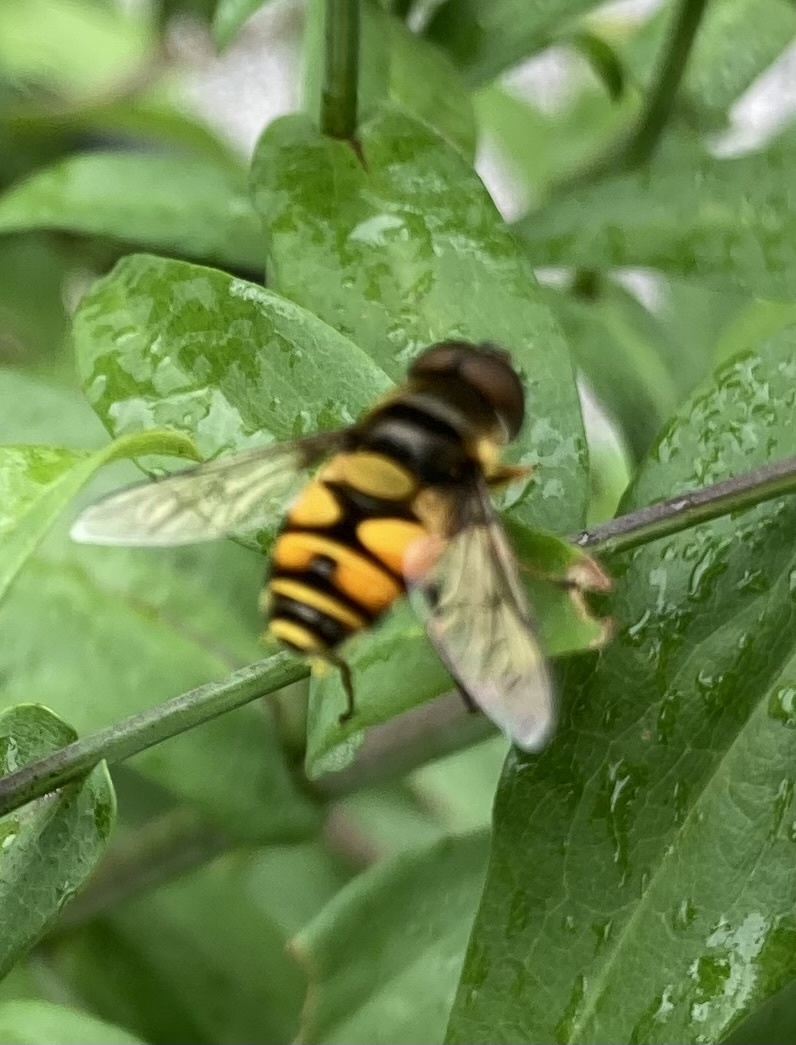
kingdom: Animalia
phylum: Arthropoda
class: Insecta
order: Diptera
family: Syrphidae
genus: Eristalis
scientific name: Eristalis transversa
